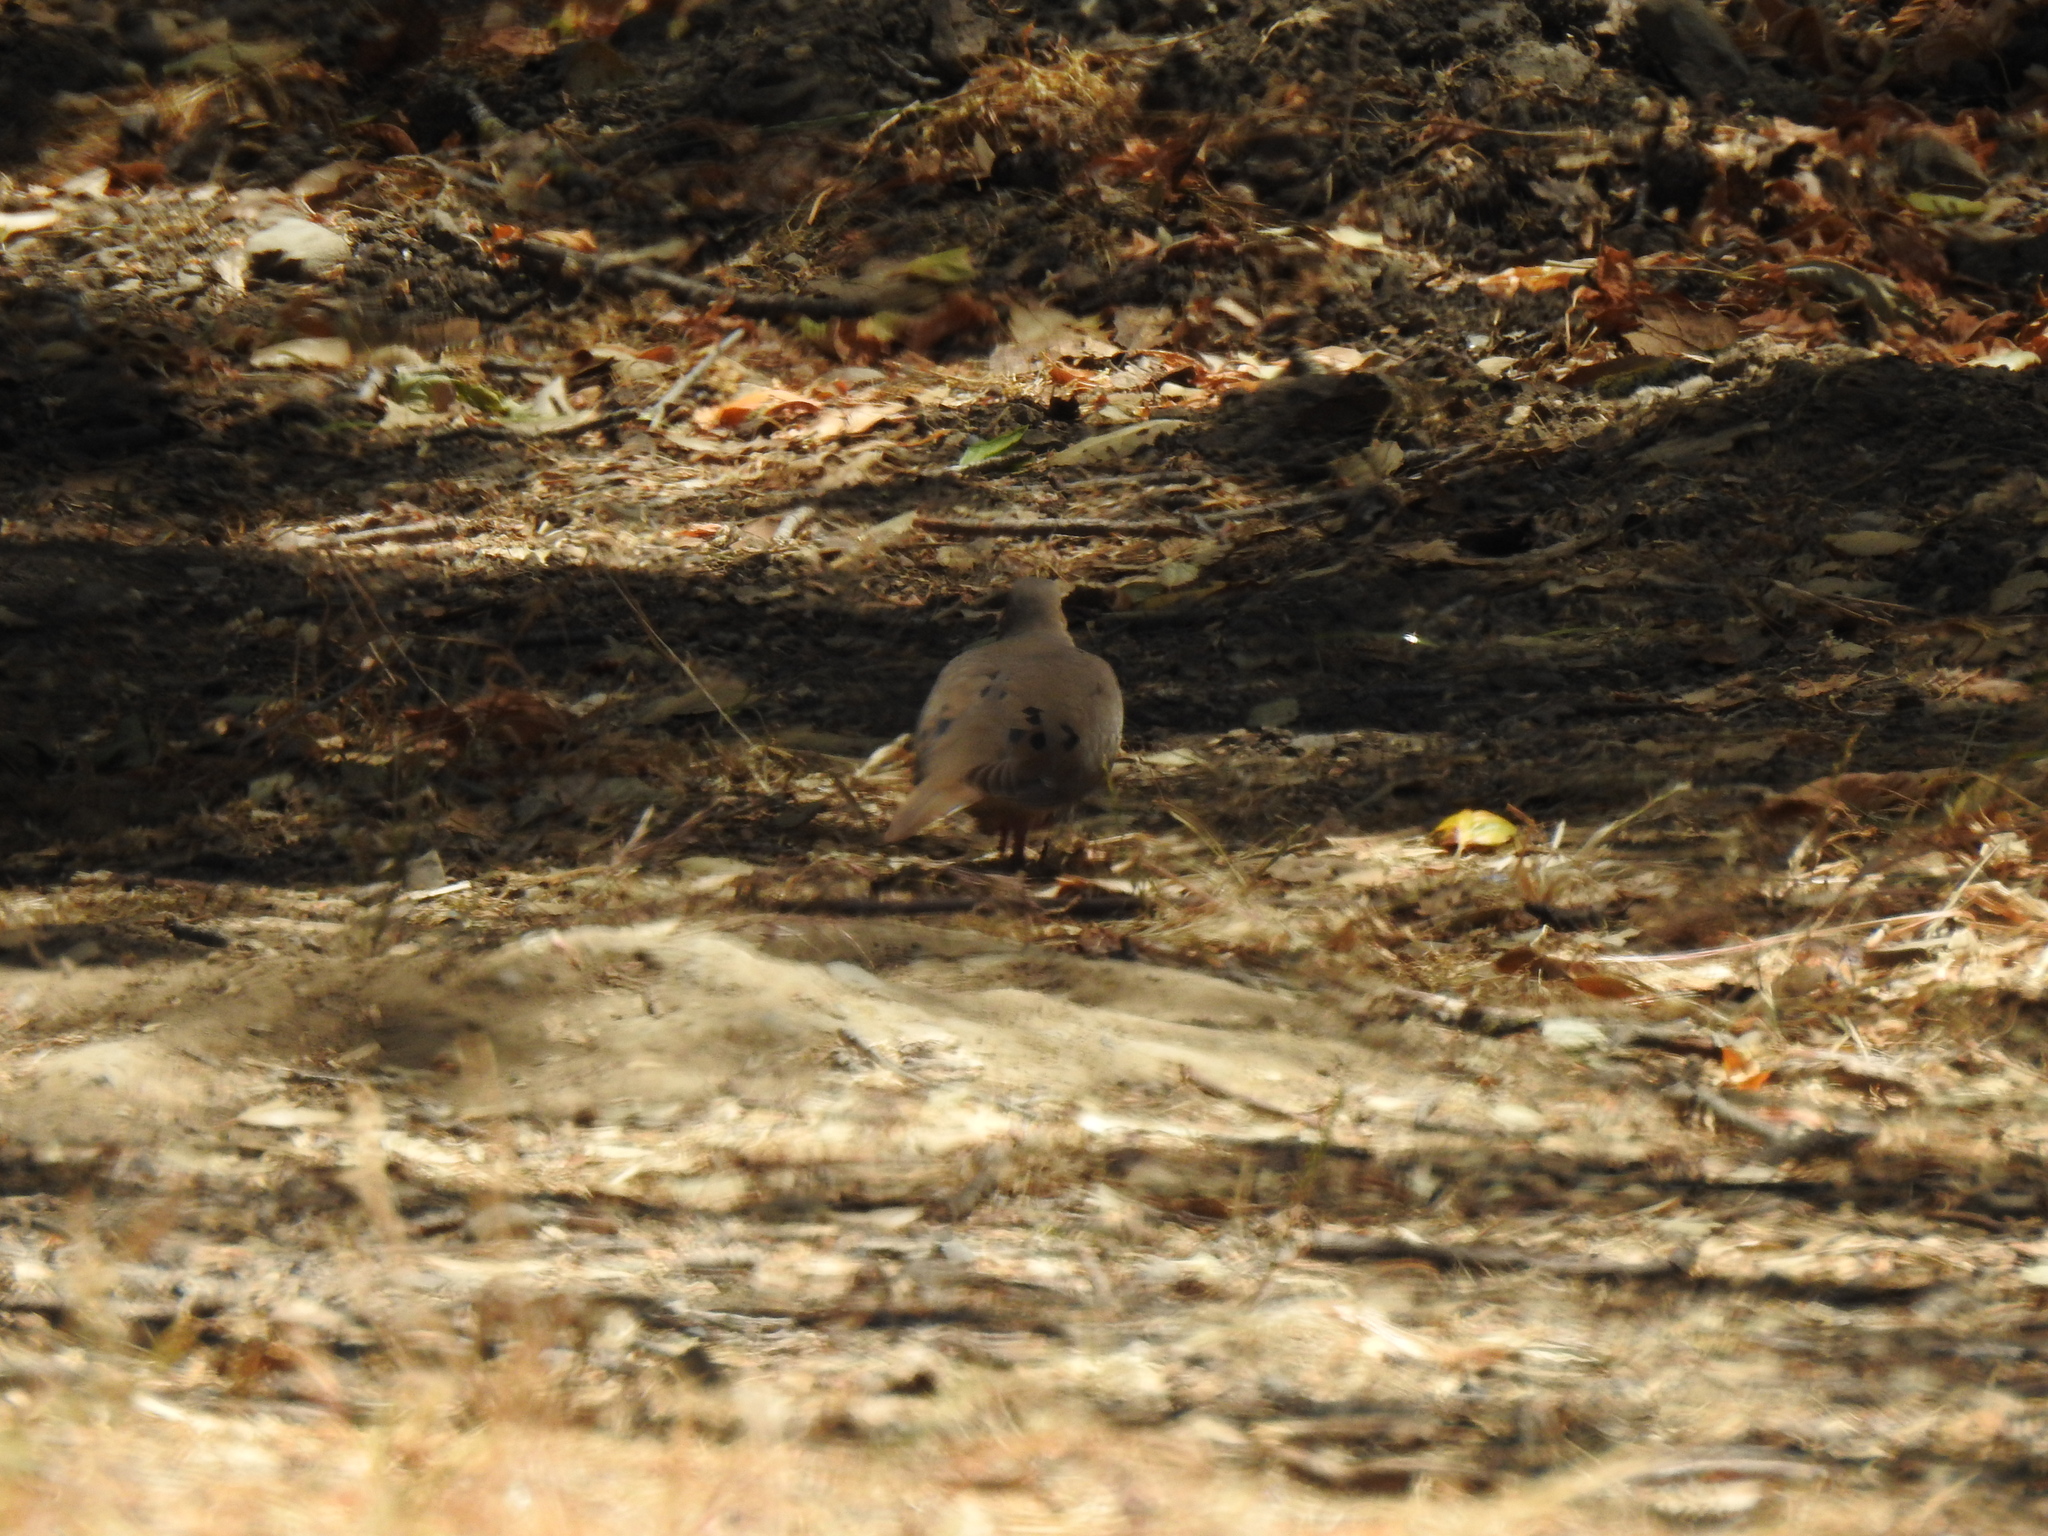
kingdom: Animalia
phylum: Chordata
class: Aves
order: Columbiformes
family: Columbidae
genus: Zenaida
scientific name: Zenaida macroura
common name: Mourning dove
